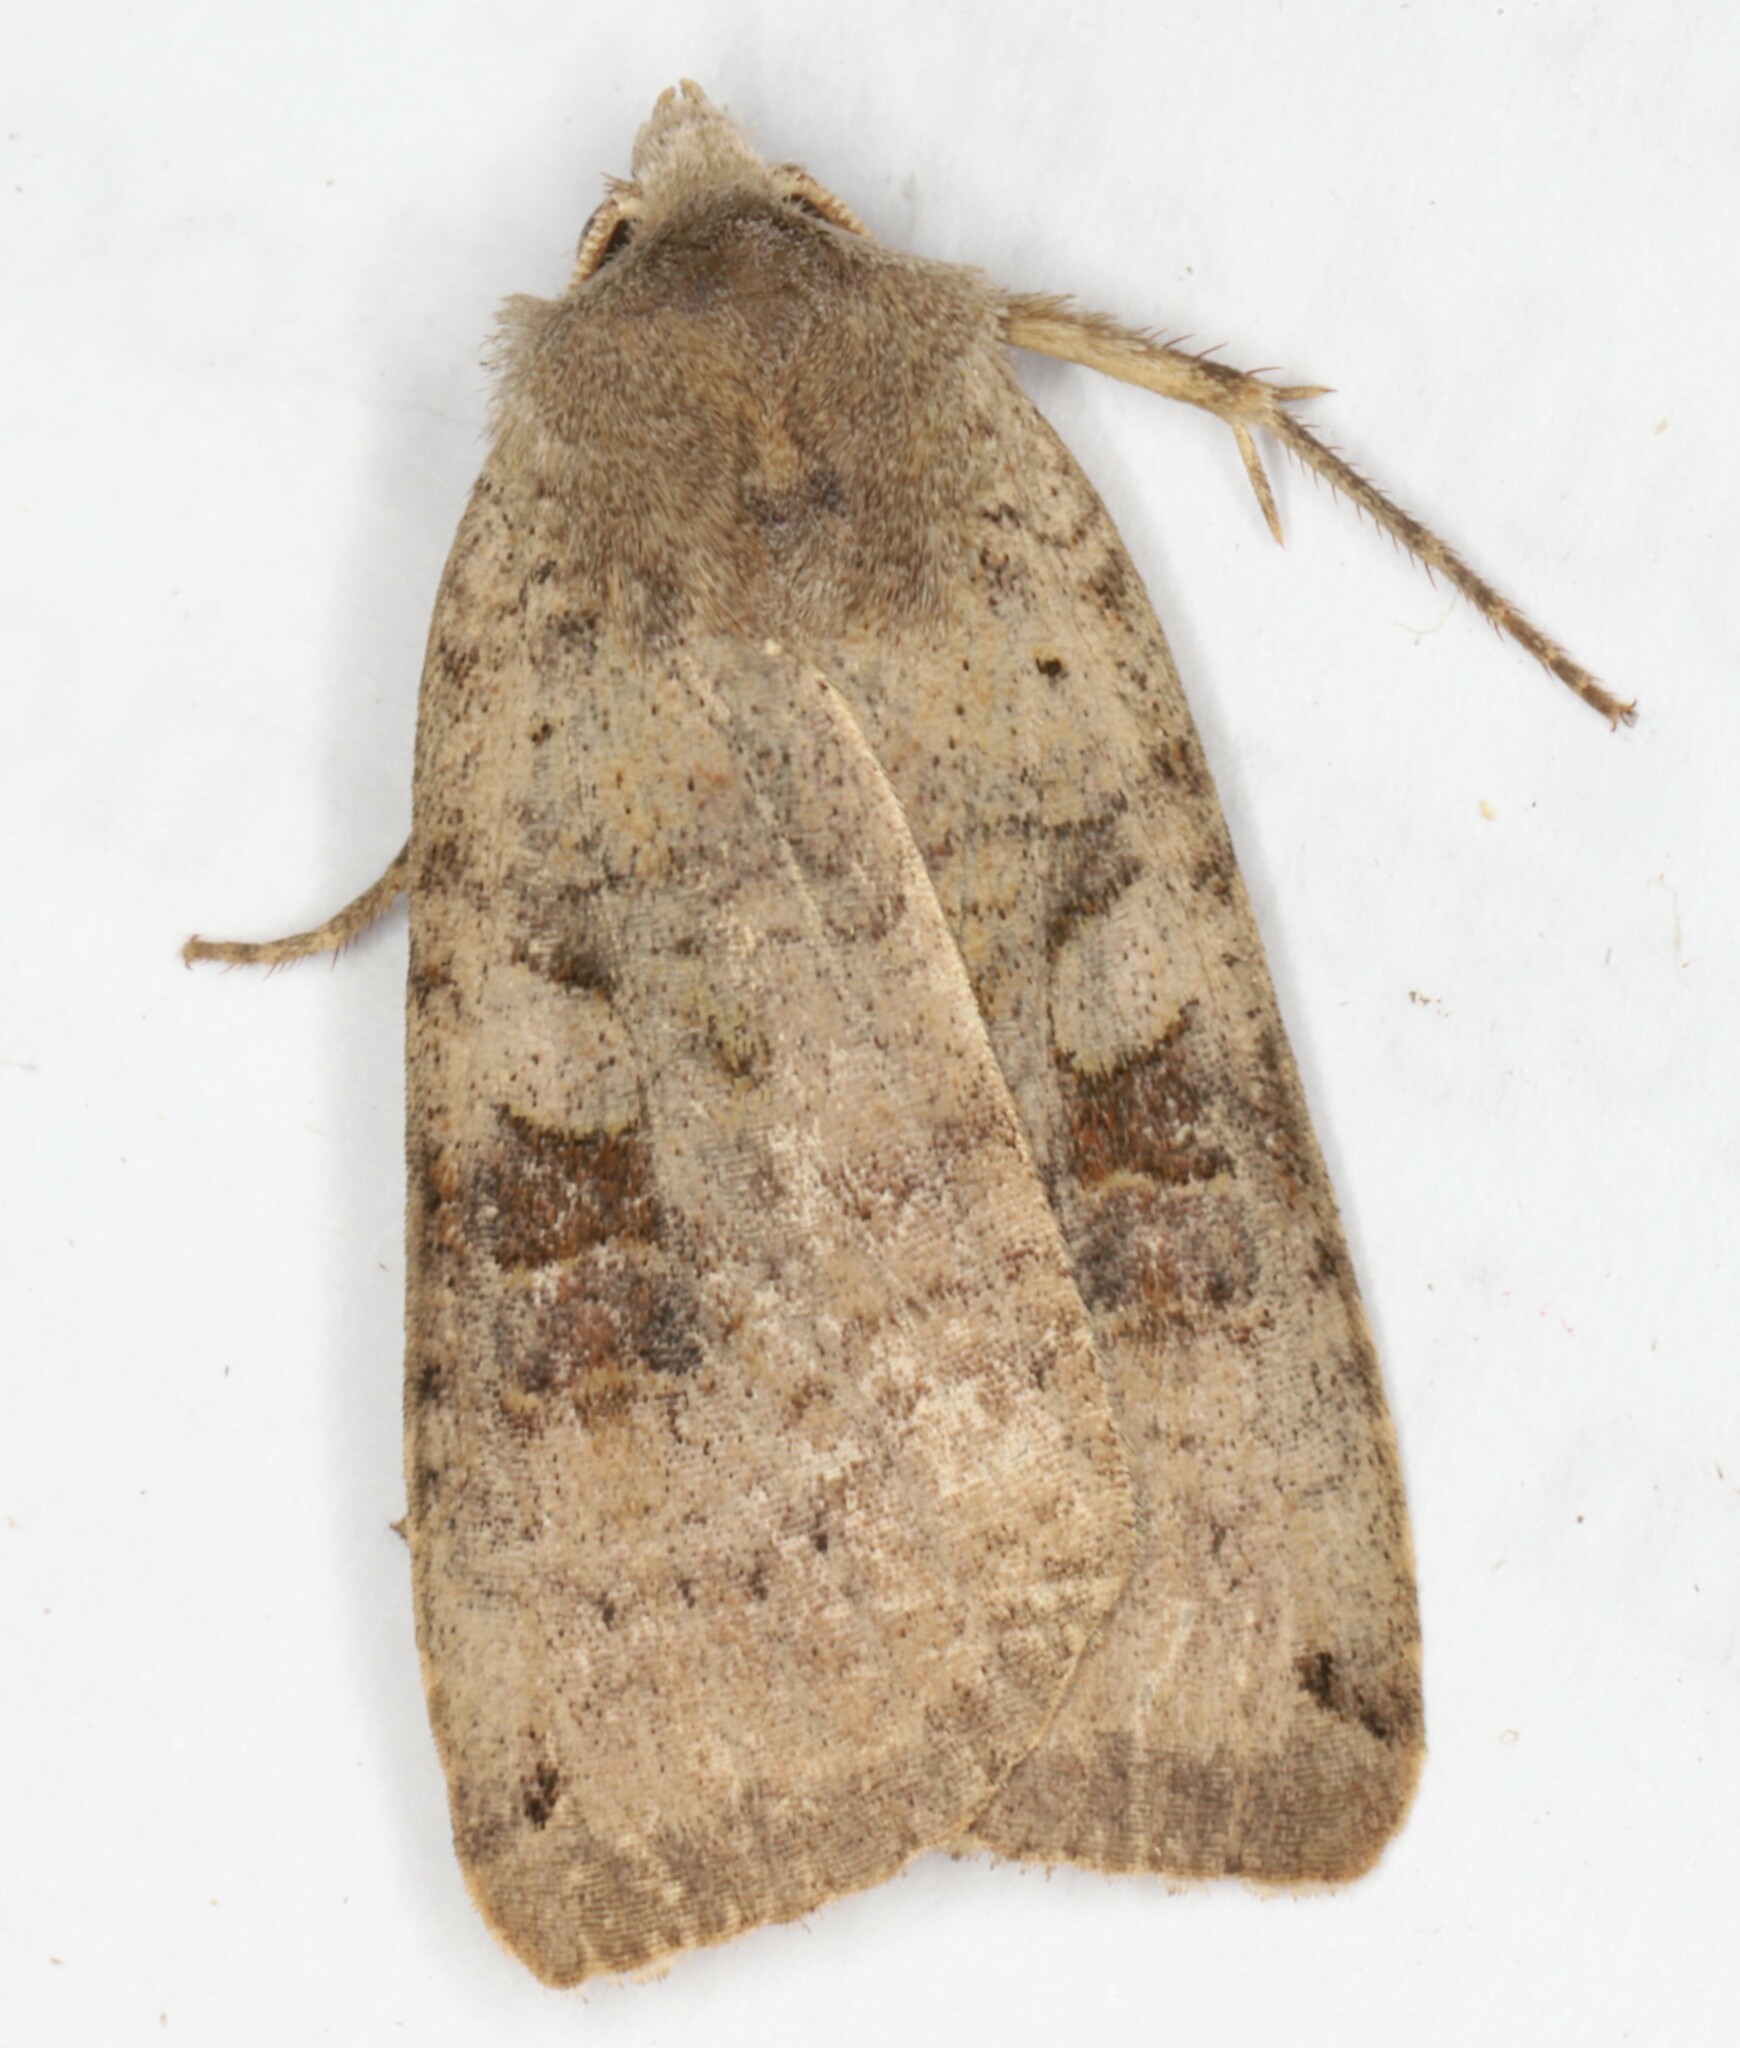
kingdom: Animalia
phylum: Arthropoda
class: Insecta
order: Lepidoptera
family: Noctuidae
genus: Xestia
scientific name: Xestia smithii
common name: Smith's dart
